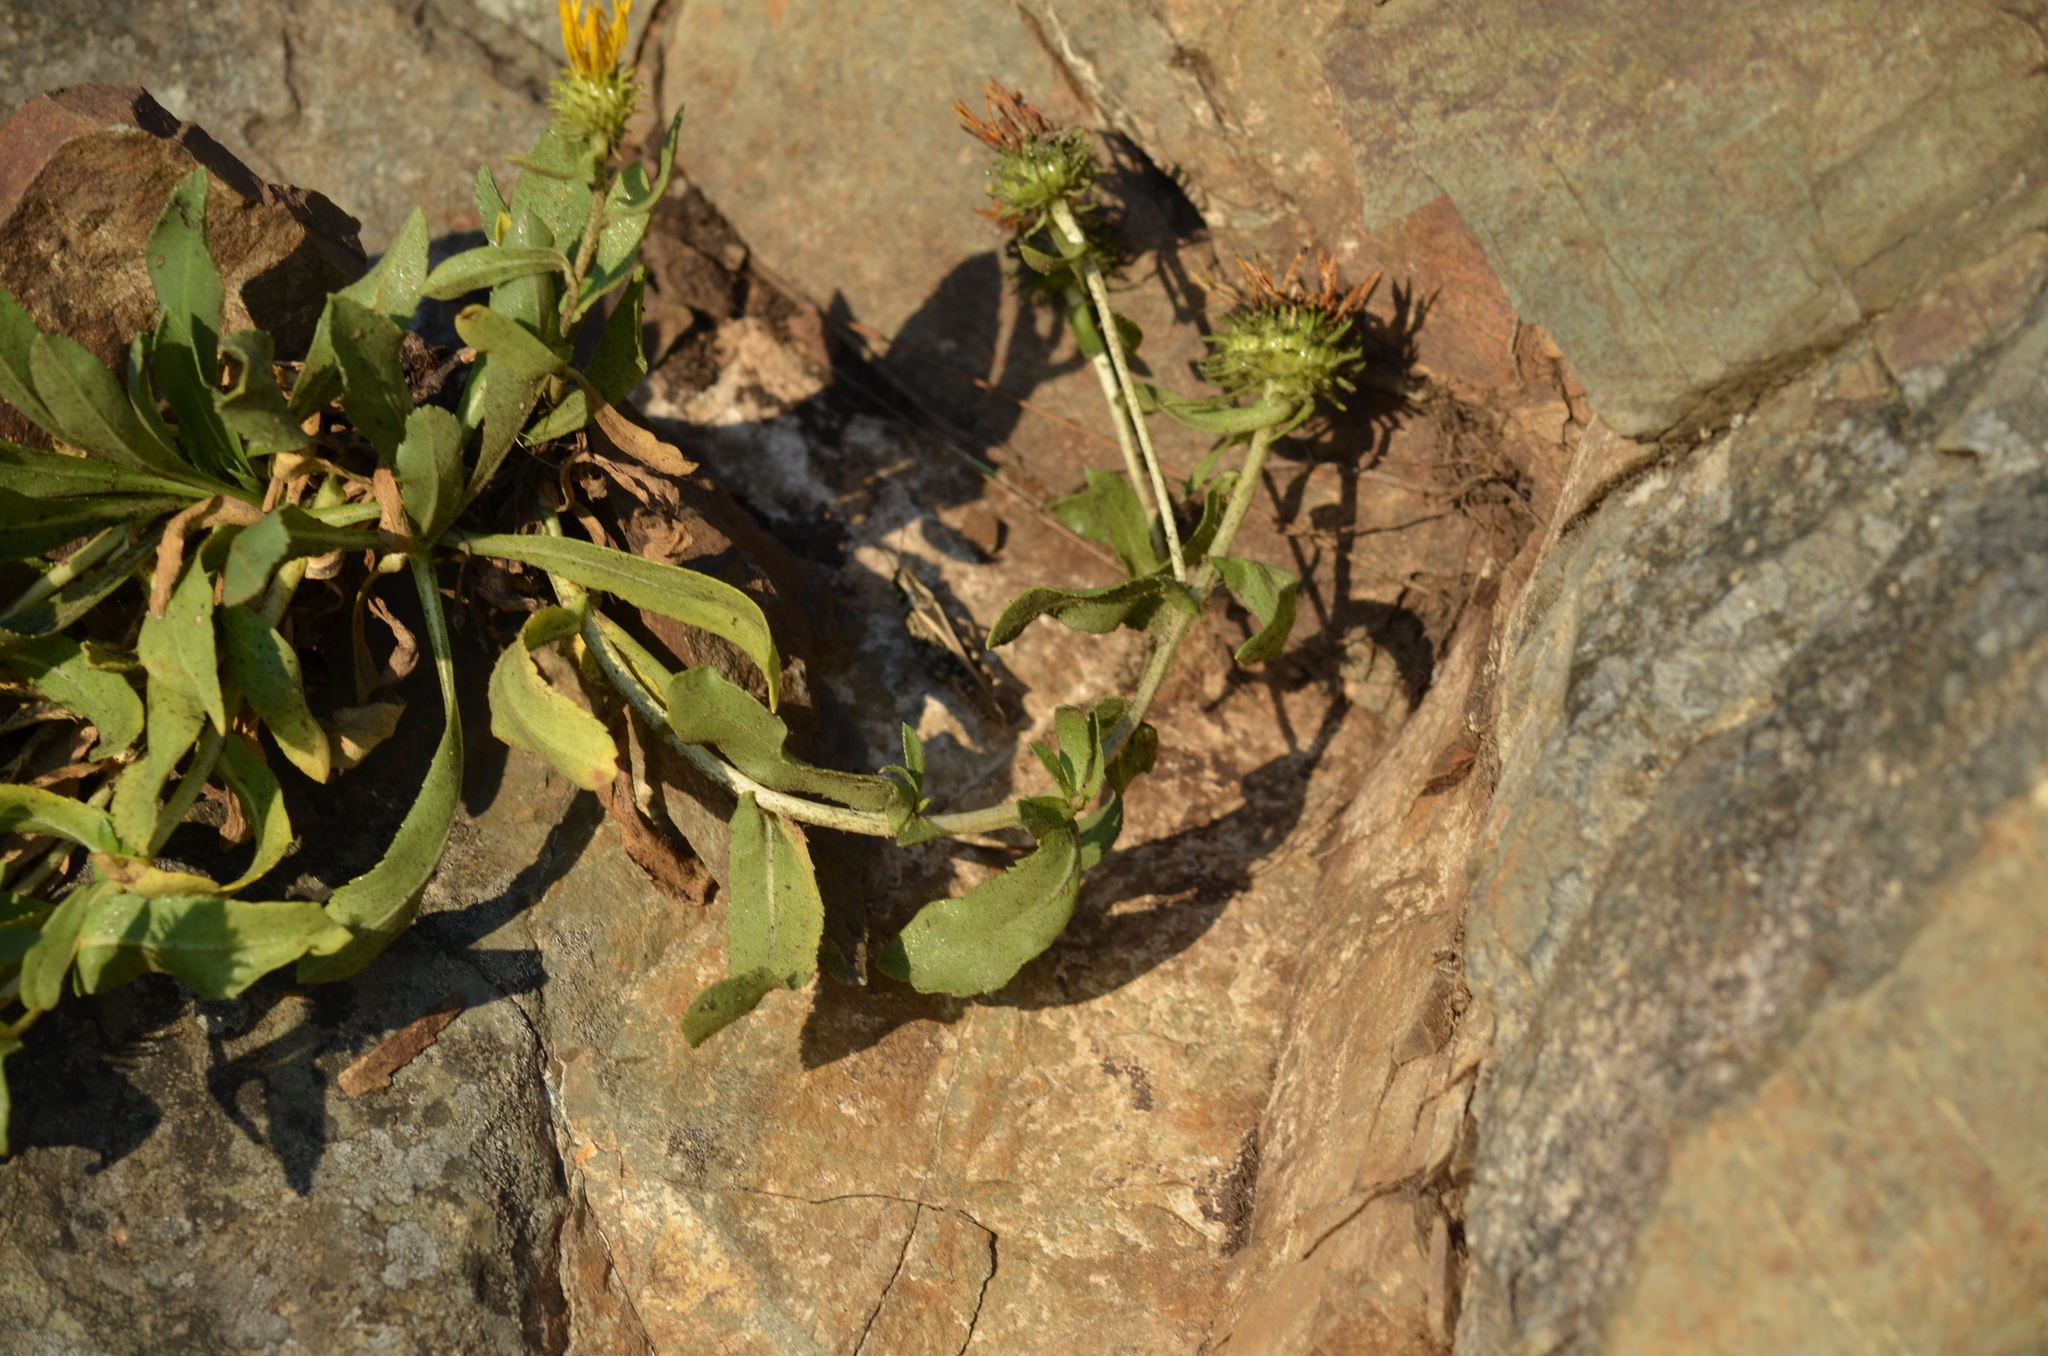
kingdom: Plantae
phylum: Tracheophyta
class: Magnoliopsida
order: Asterales
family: Asteraceae
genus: Grindelia
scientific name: Grindelia hirsutula
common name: Hairy gumweed
